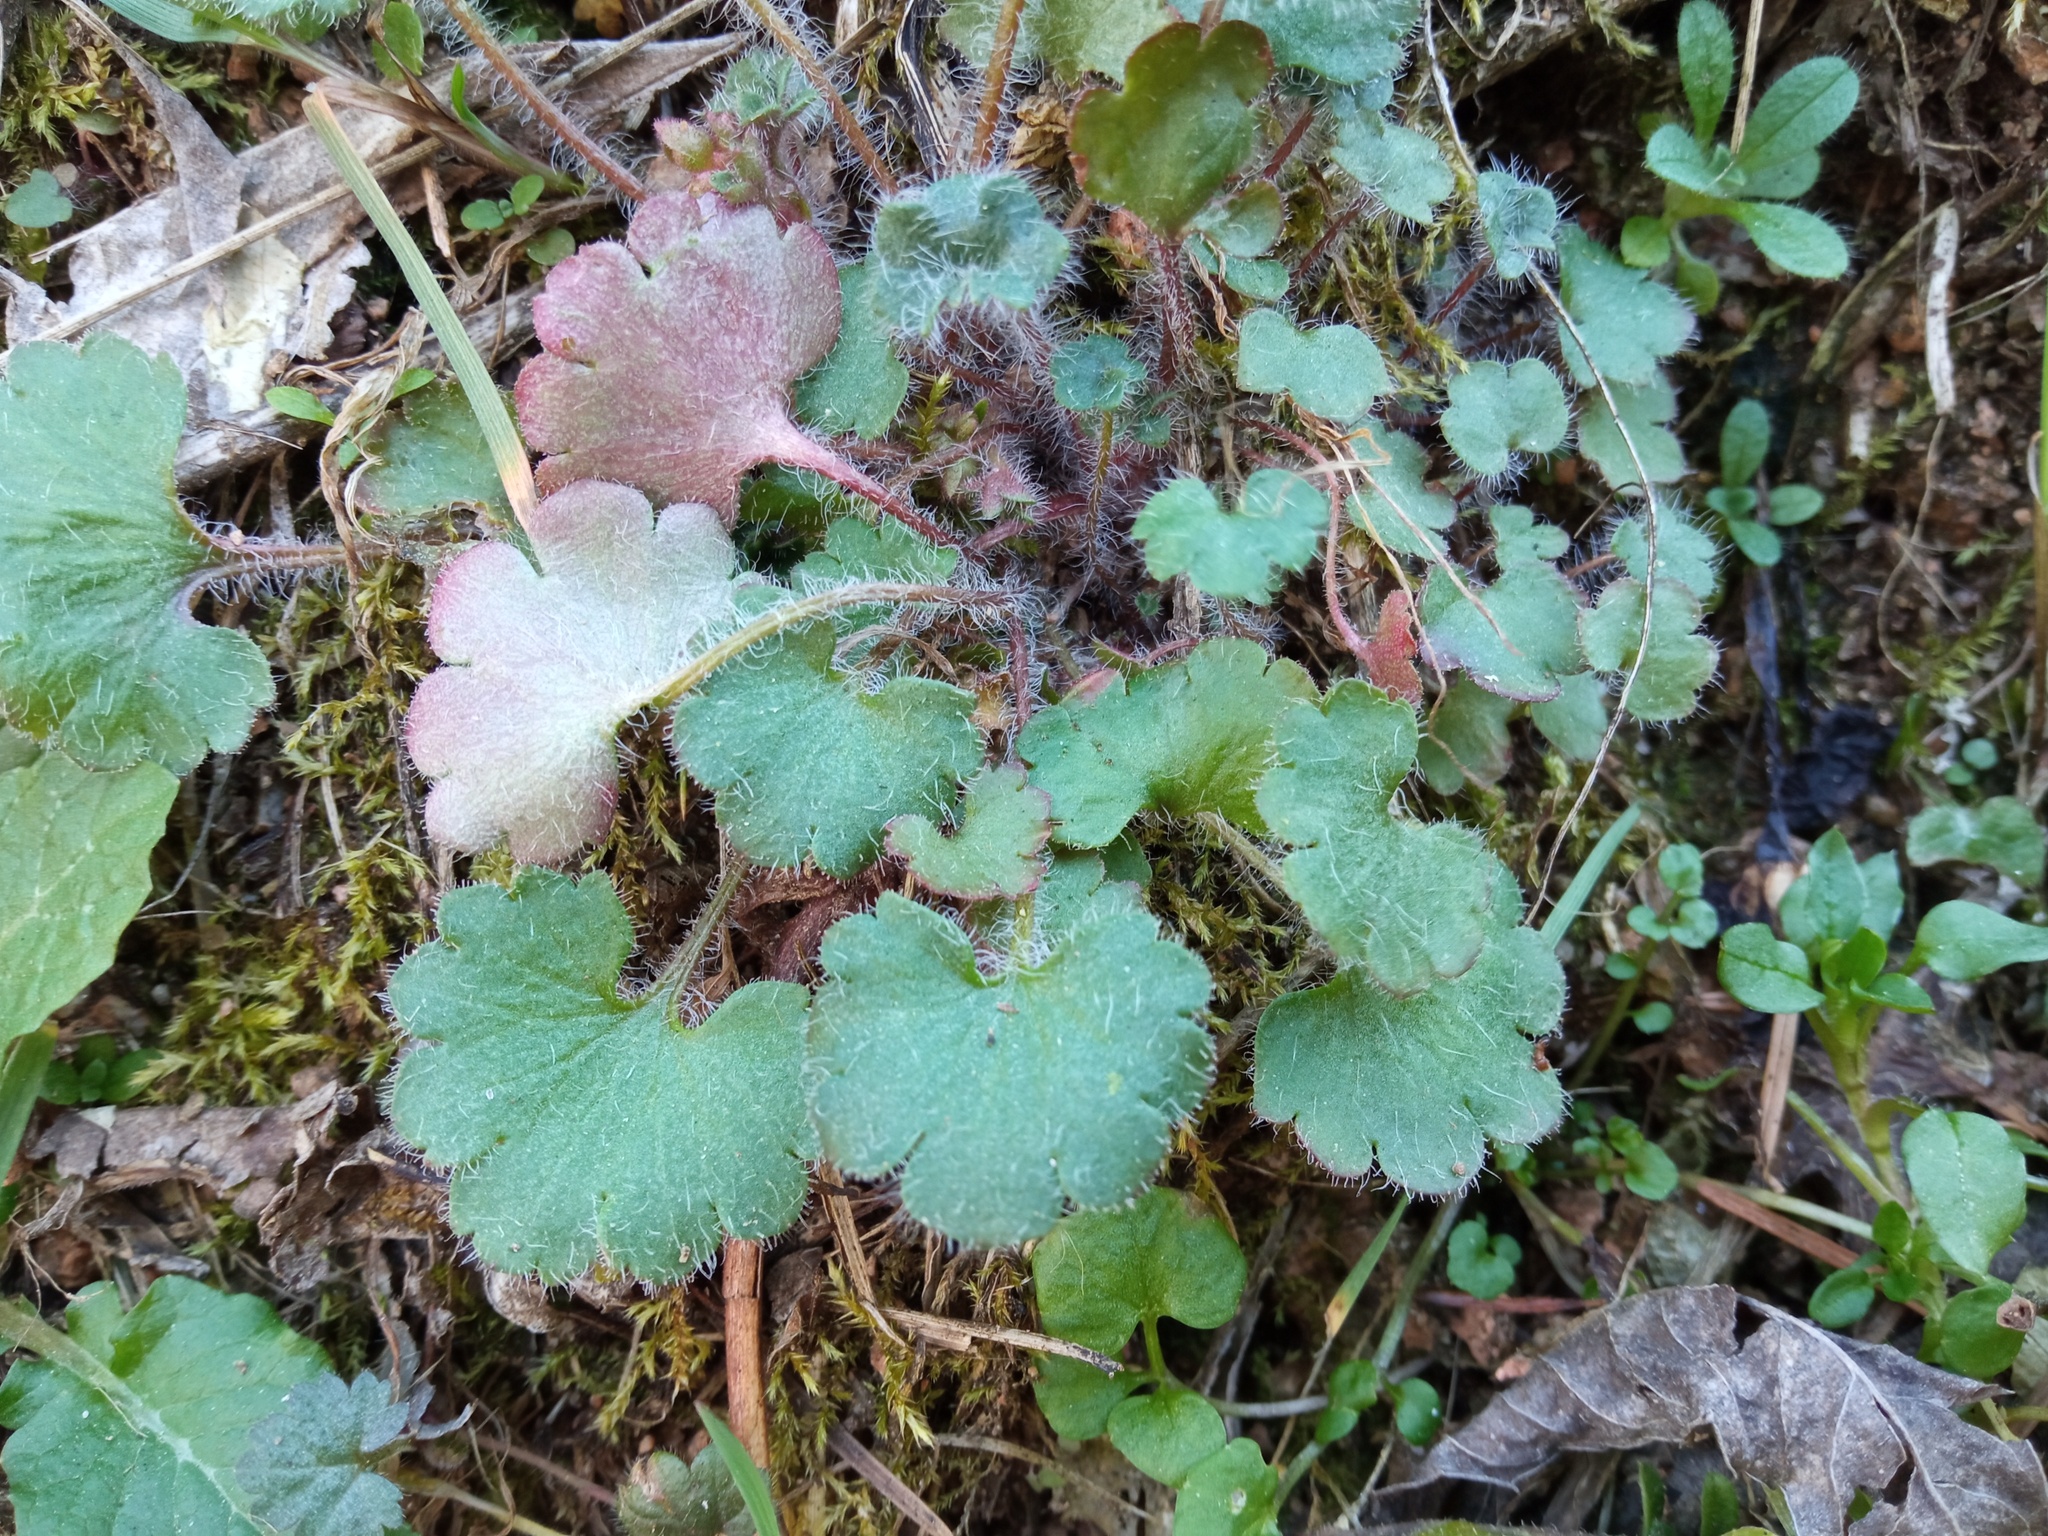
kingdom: Plantae
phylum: Tracheophyta
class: Magnoliopsida
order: Saxifragales
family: Saxifragaceae
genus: Saxifraga
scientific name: Saxifraga granulata
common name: Meadow saxifrage
